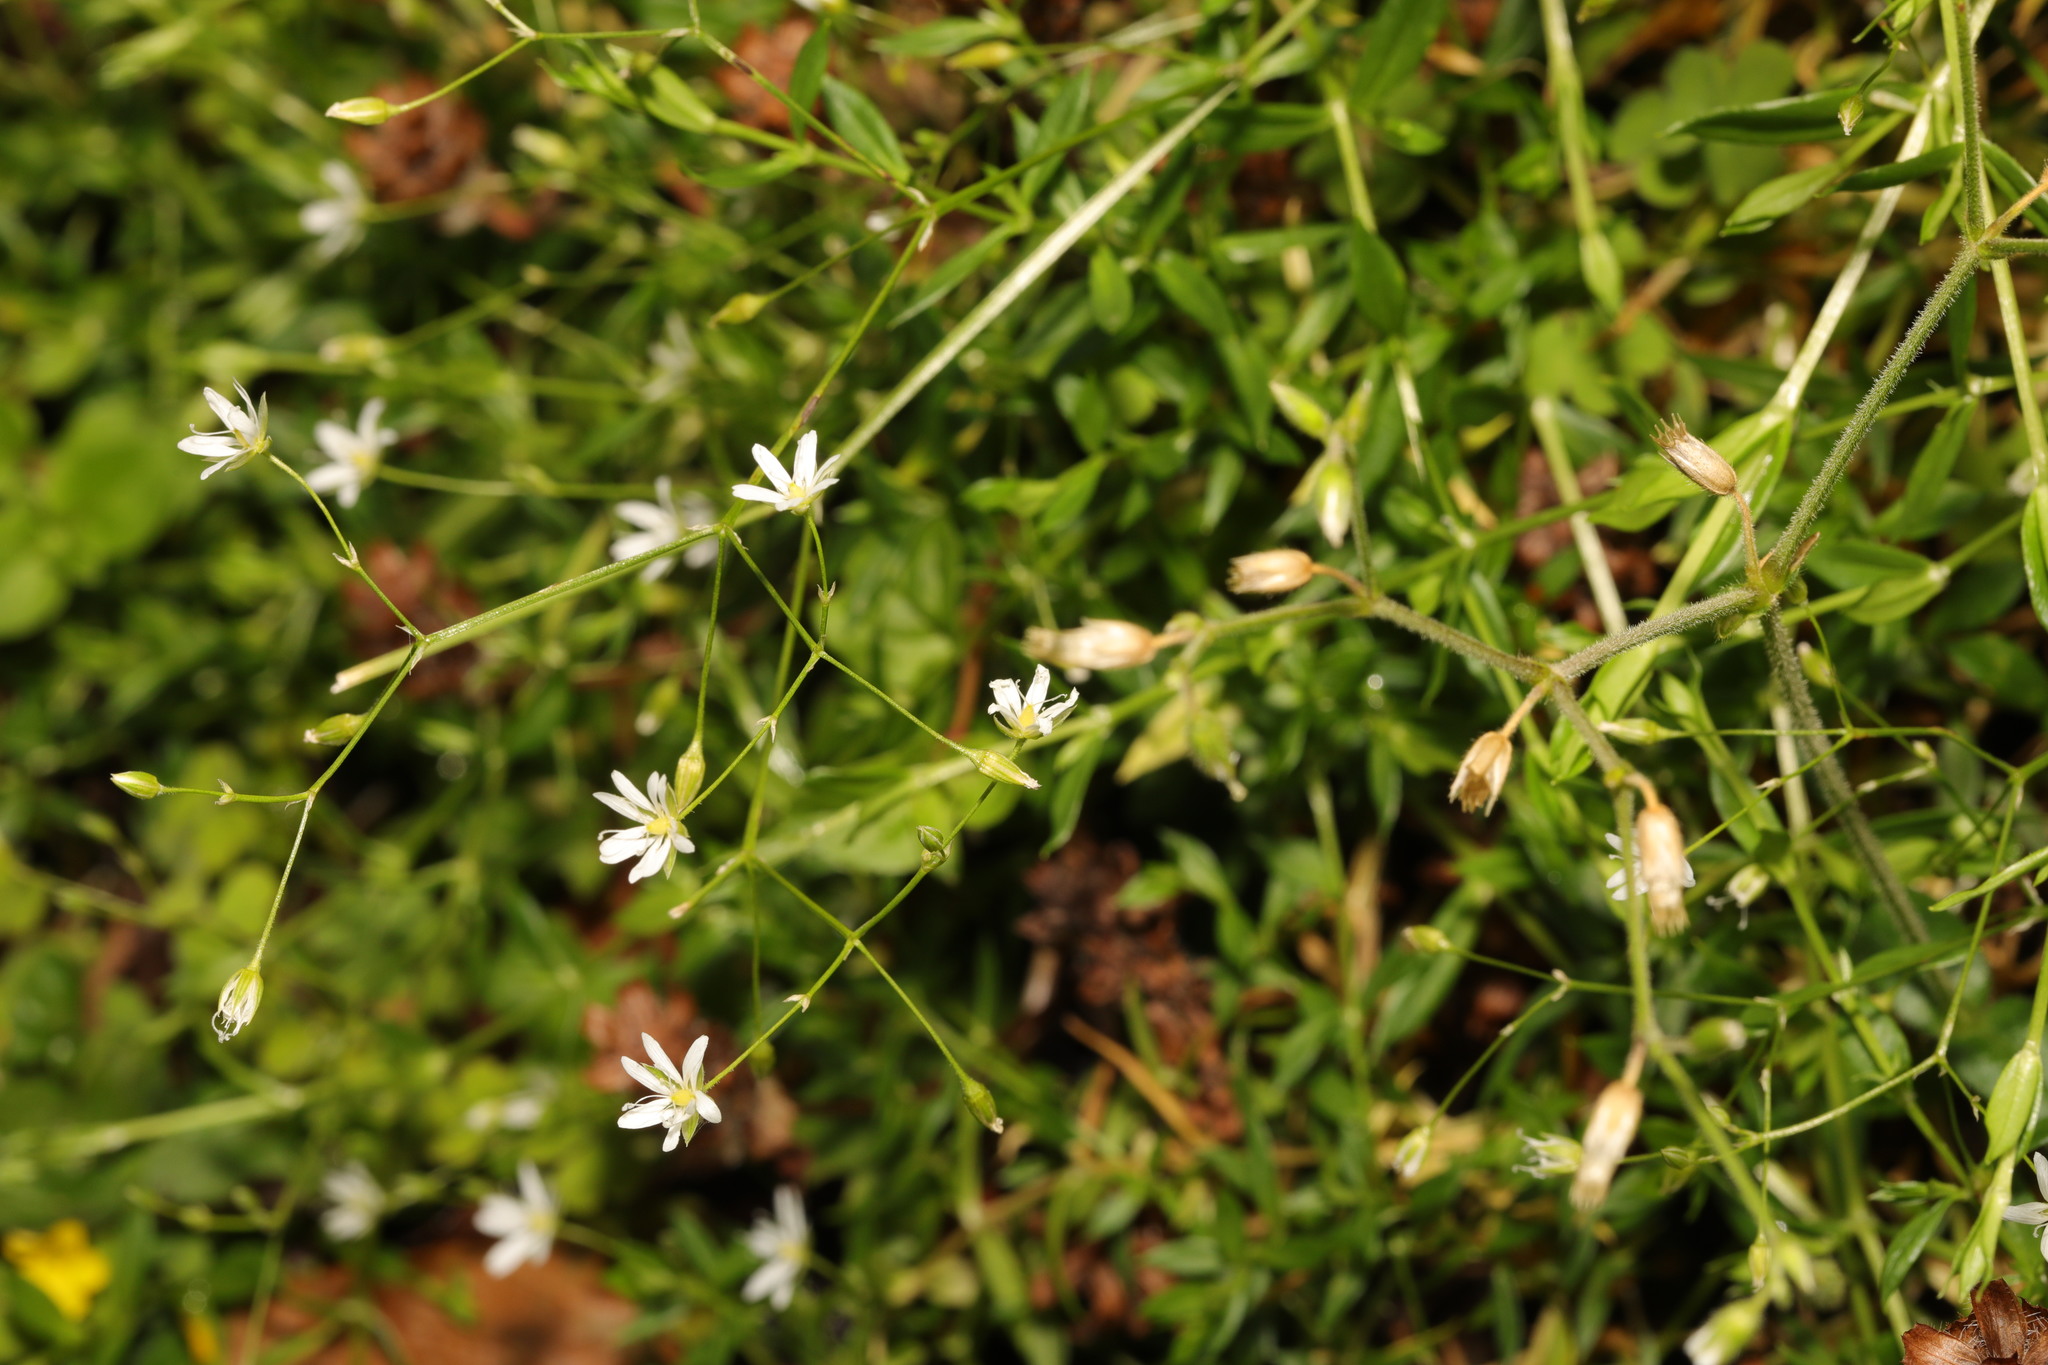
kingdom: Plantae
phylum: Tracheophyta
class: Magnoliopsida
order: Caryophyllales
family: Caryophyllaceae
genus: Stellaria
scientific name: Stellaria graminea
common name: Grass-like starwort
